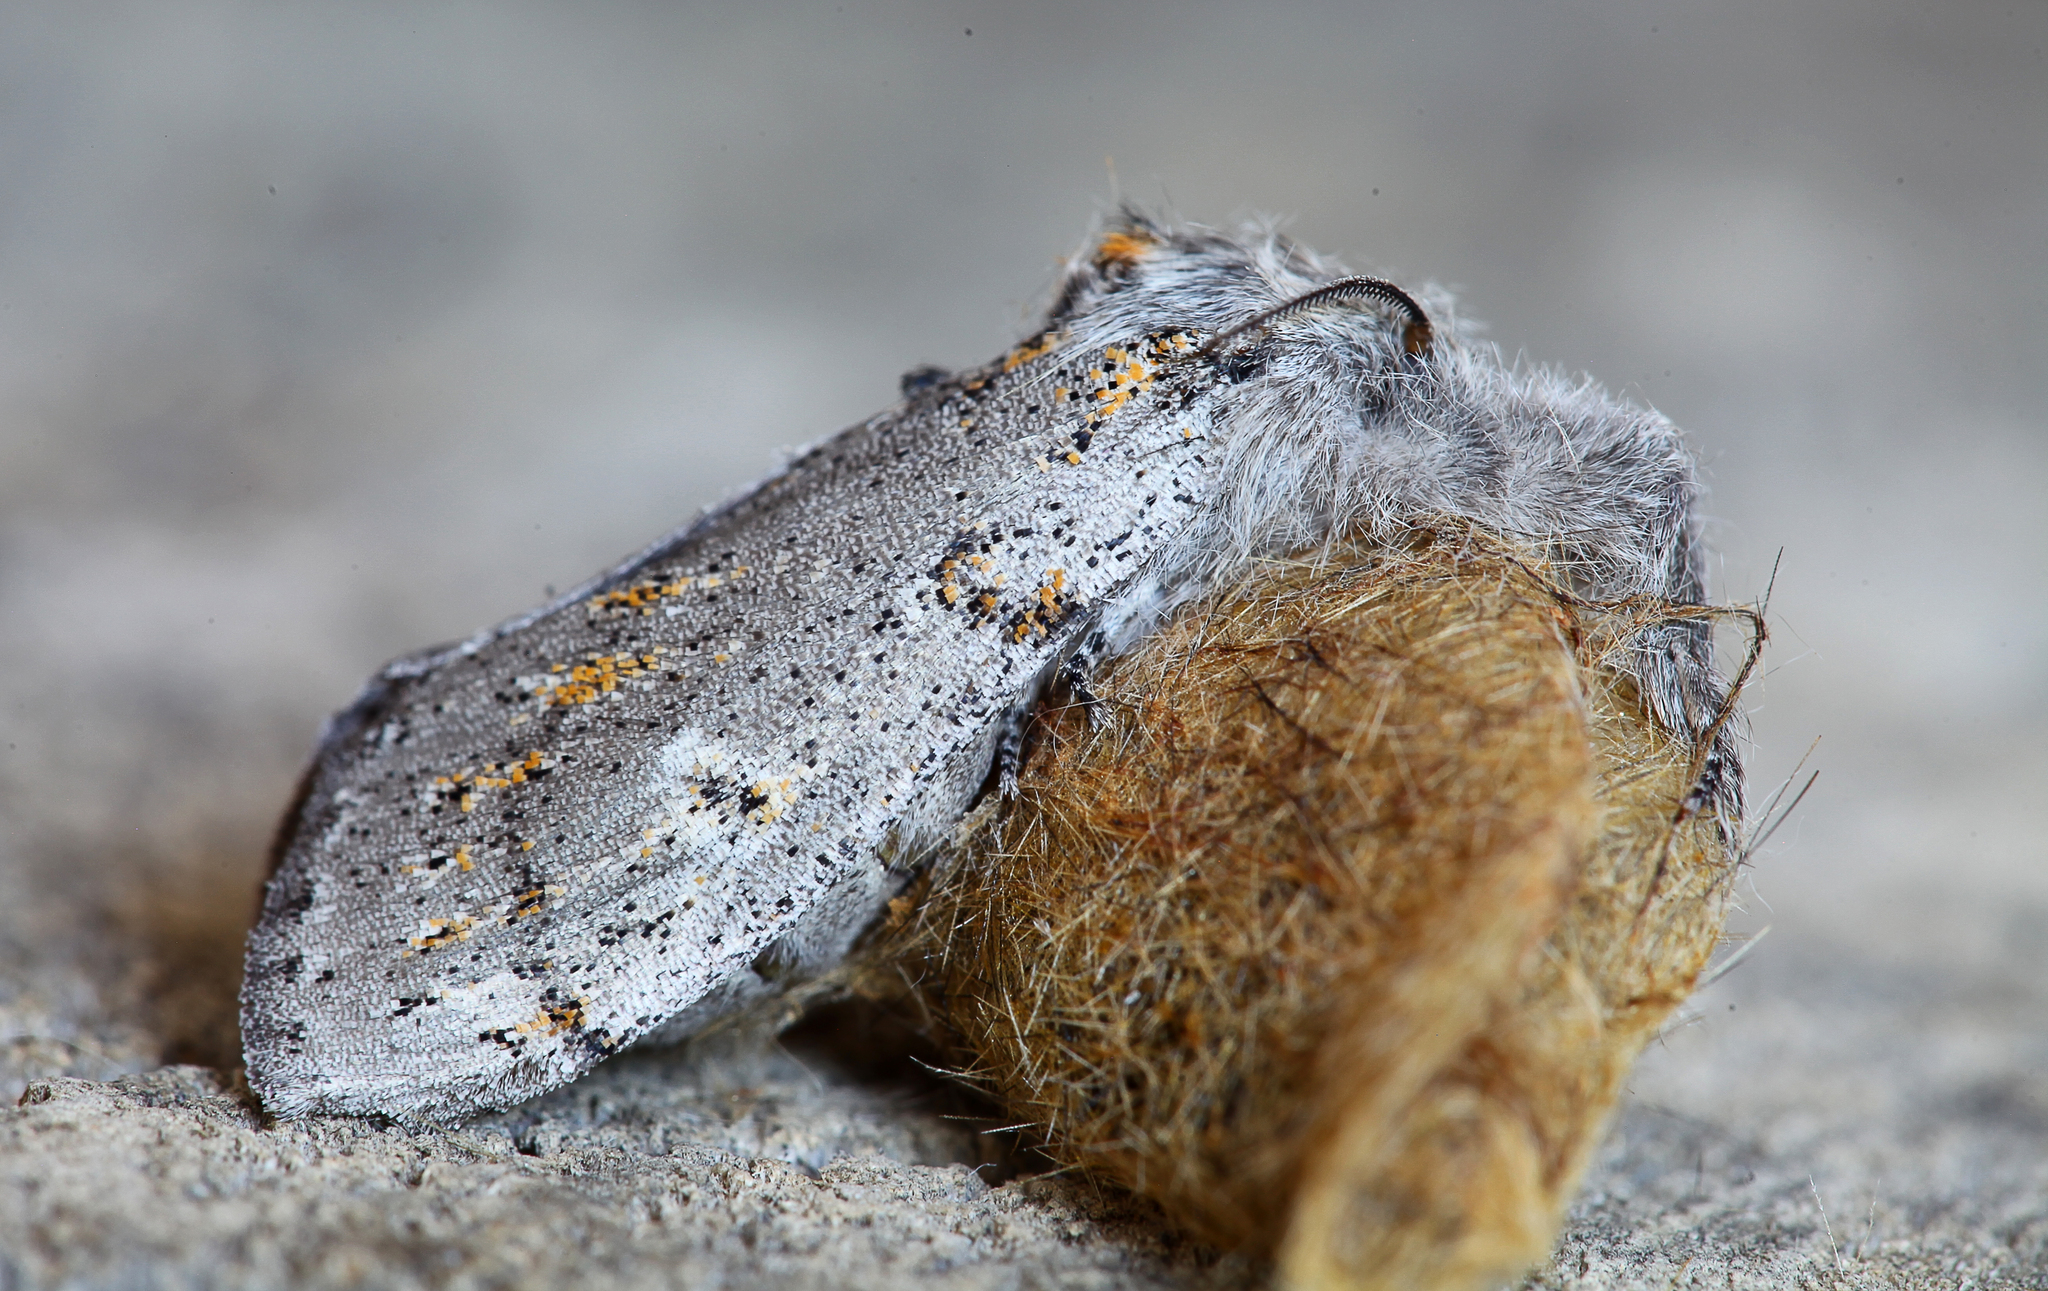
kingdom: Animalia
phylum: Arthropoda
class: Insecta
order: Lepidoptera
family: Erebidae
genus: Calliteara
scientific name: Calliteara Dicallomera fascelina
